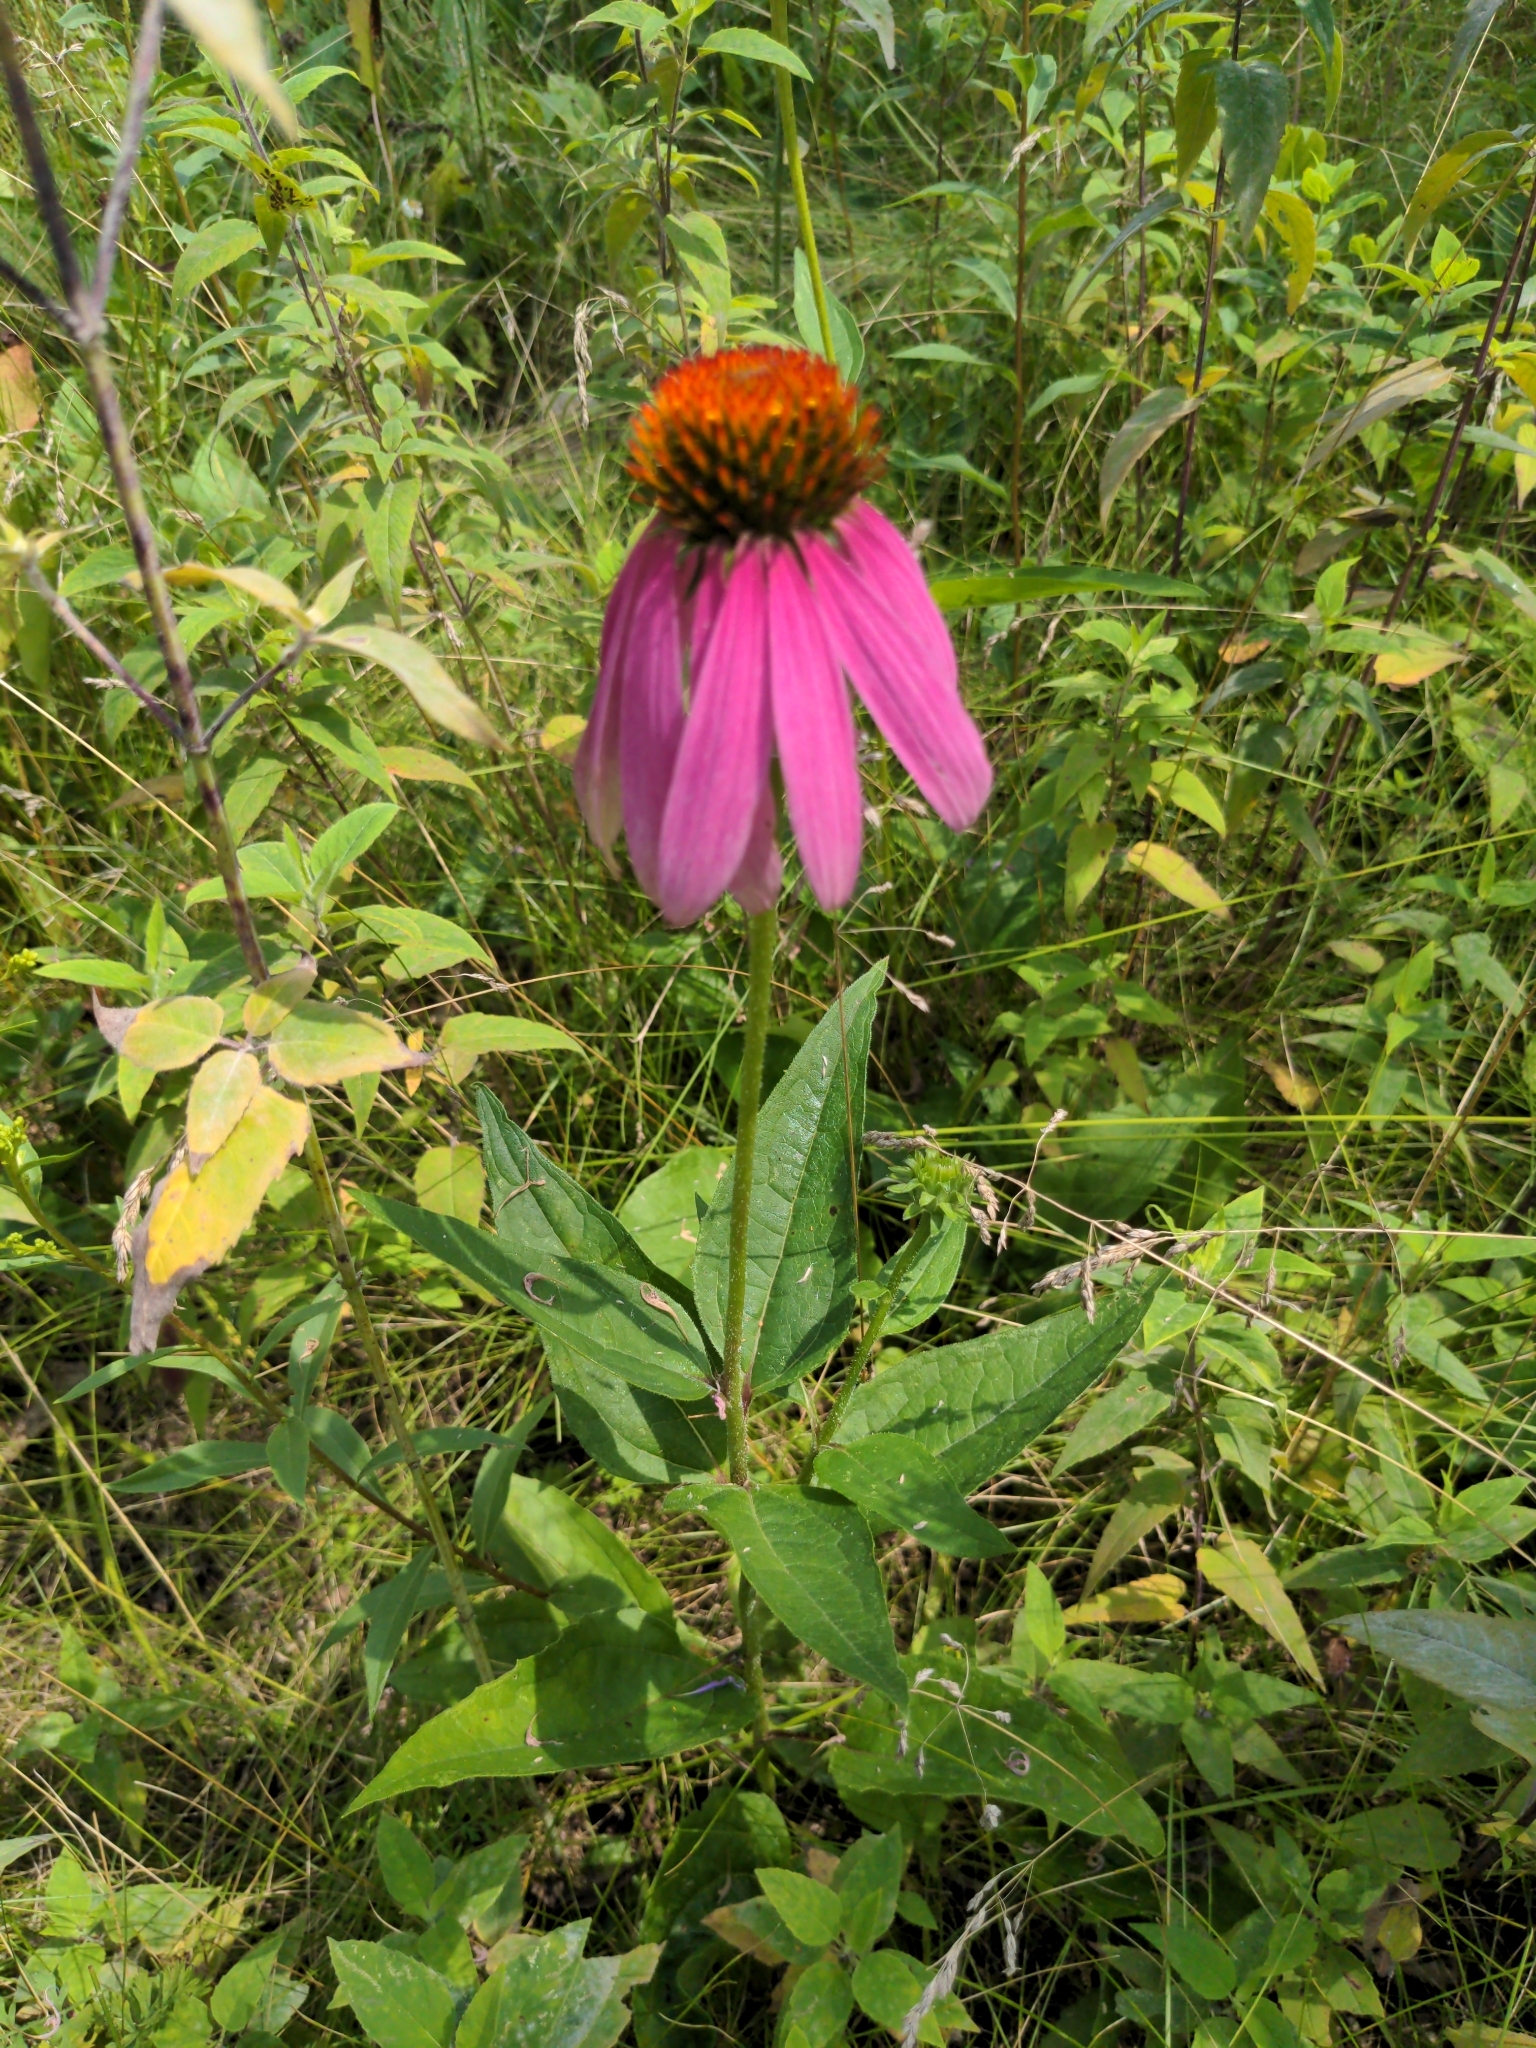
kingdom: Plantae
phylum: Tracheophyta
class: Magnoliopsida
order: Asterales
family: Asteraceae
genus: Echinacea
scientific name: Echinacea purpurea
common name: Broad-leaved purple coneflower
